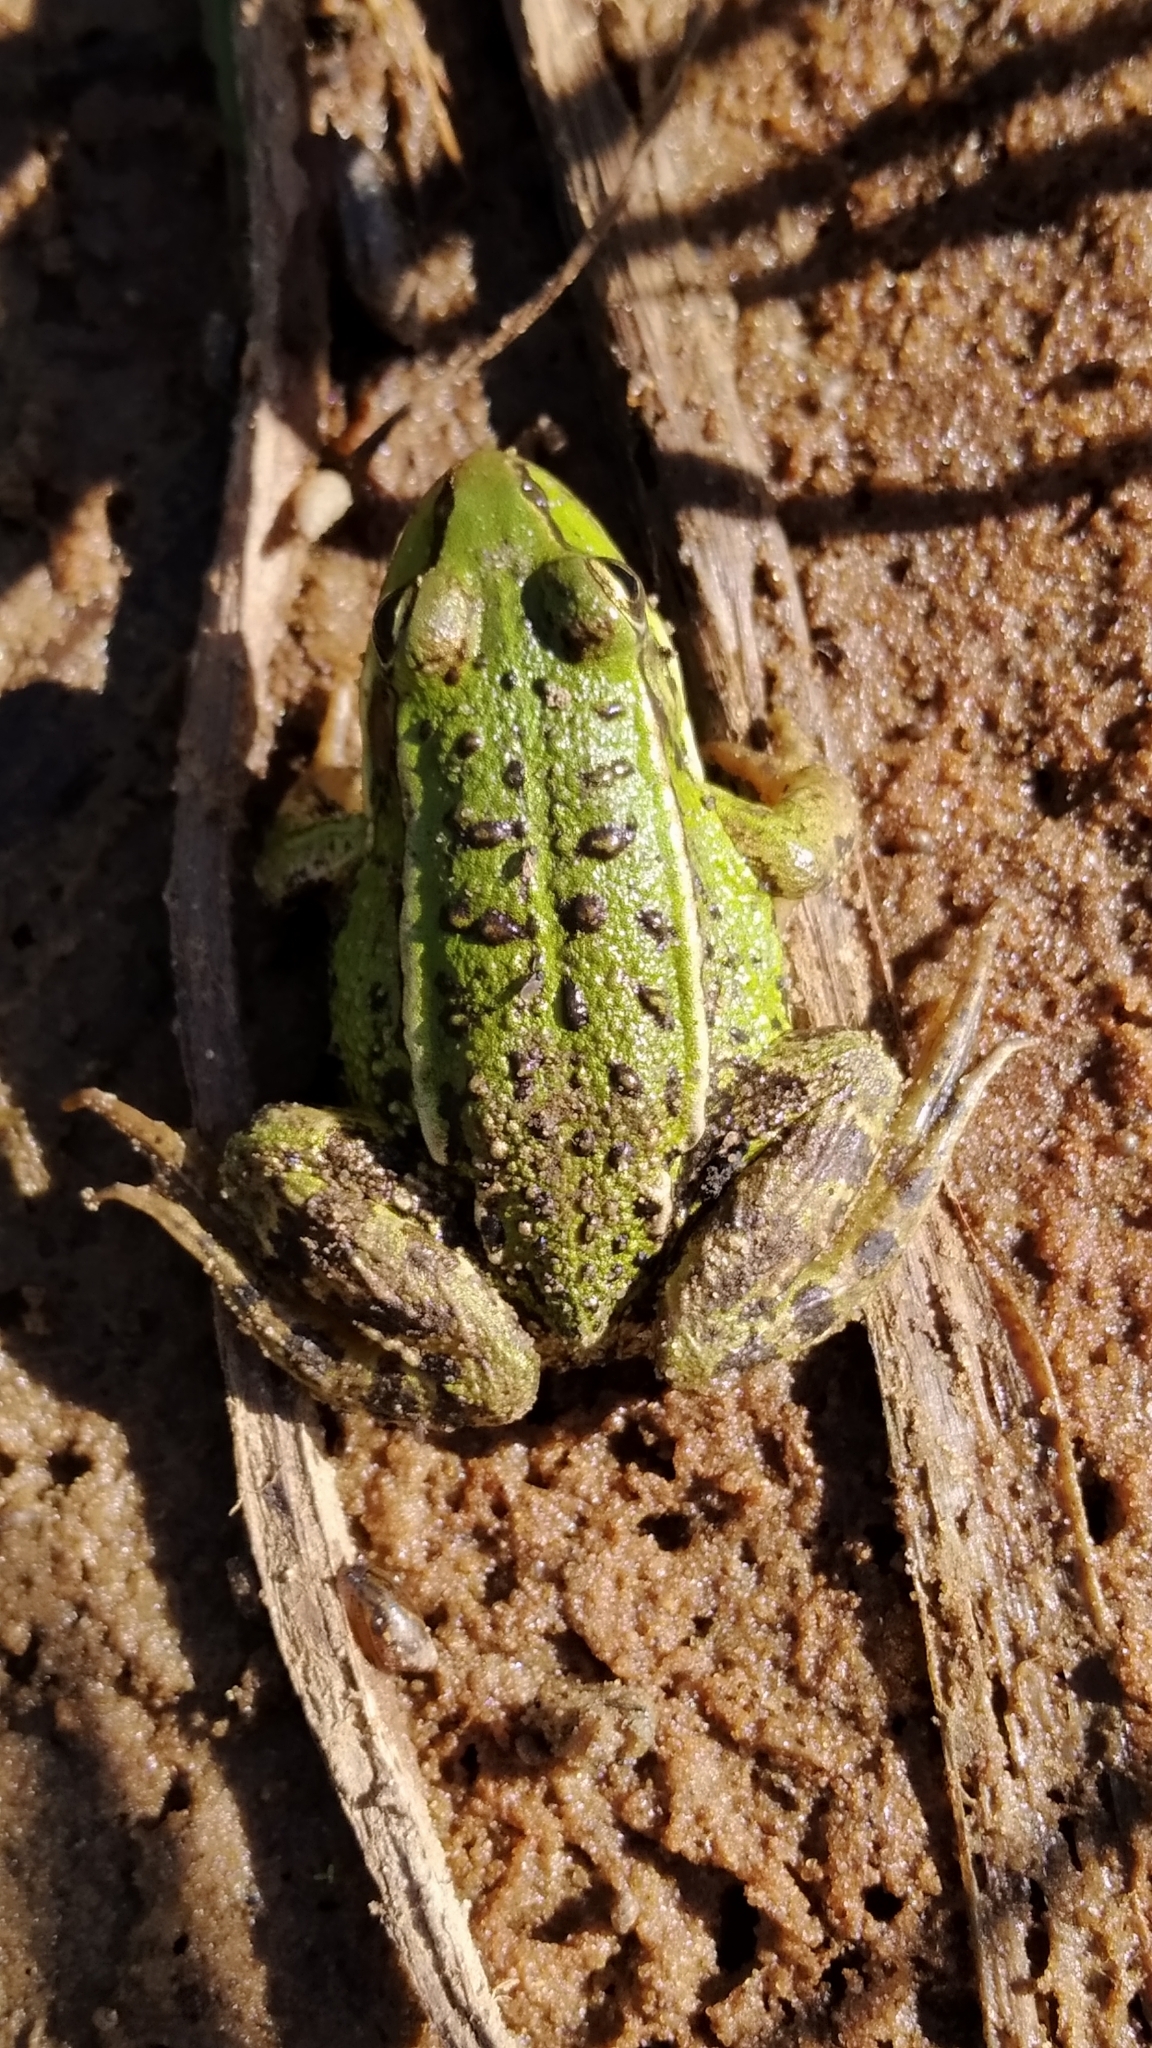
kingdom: Animalia
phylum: Chordata
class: Amphibia
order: Anura
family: Ranidae
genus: Pelophylax
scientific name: Pelophylax lessonae
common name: Pool frog
